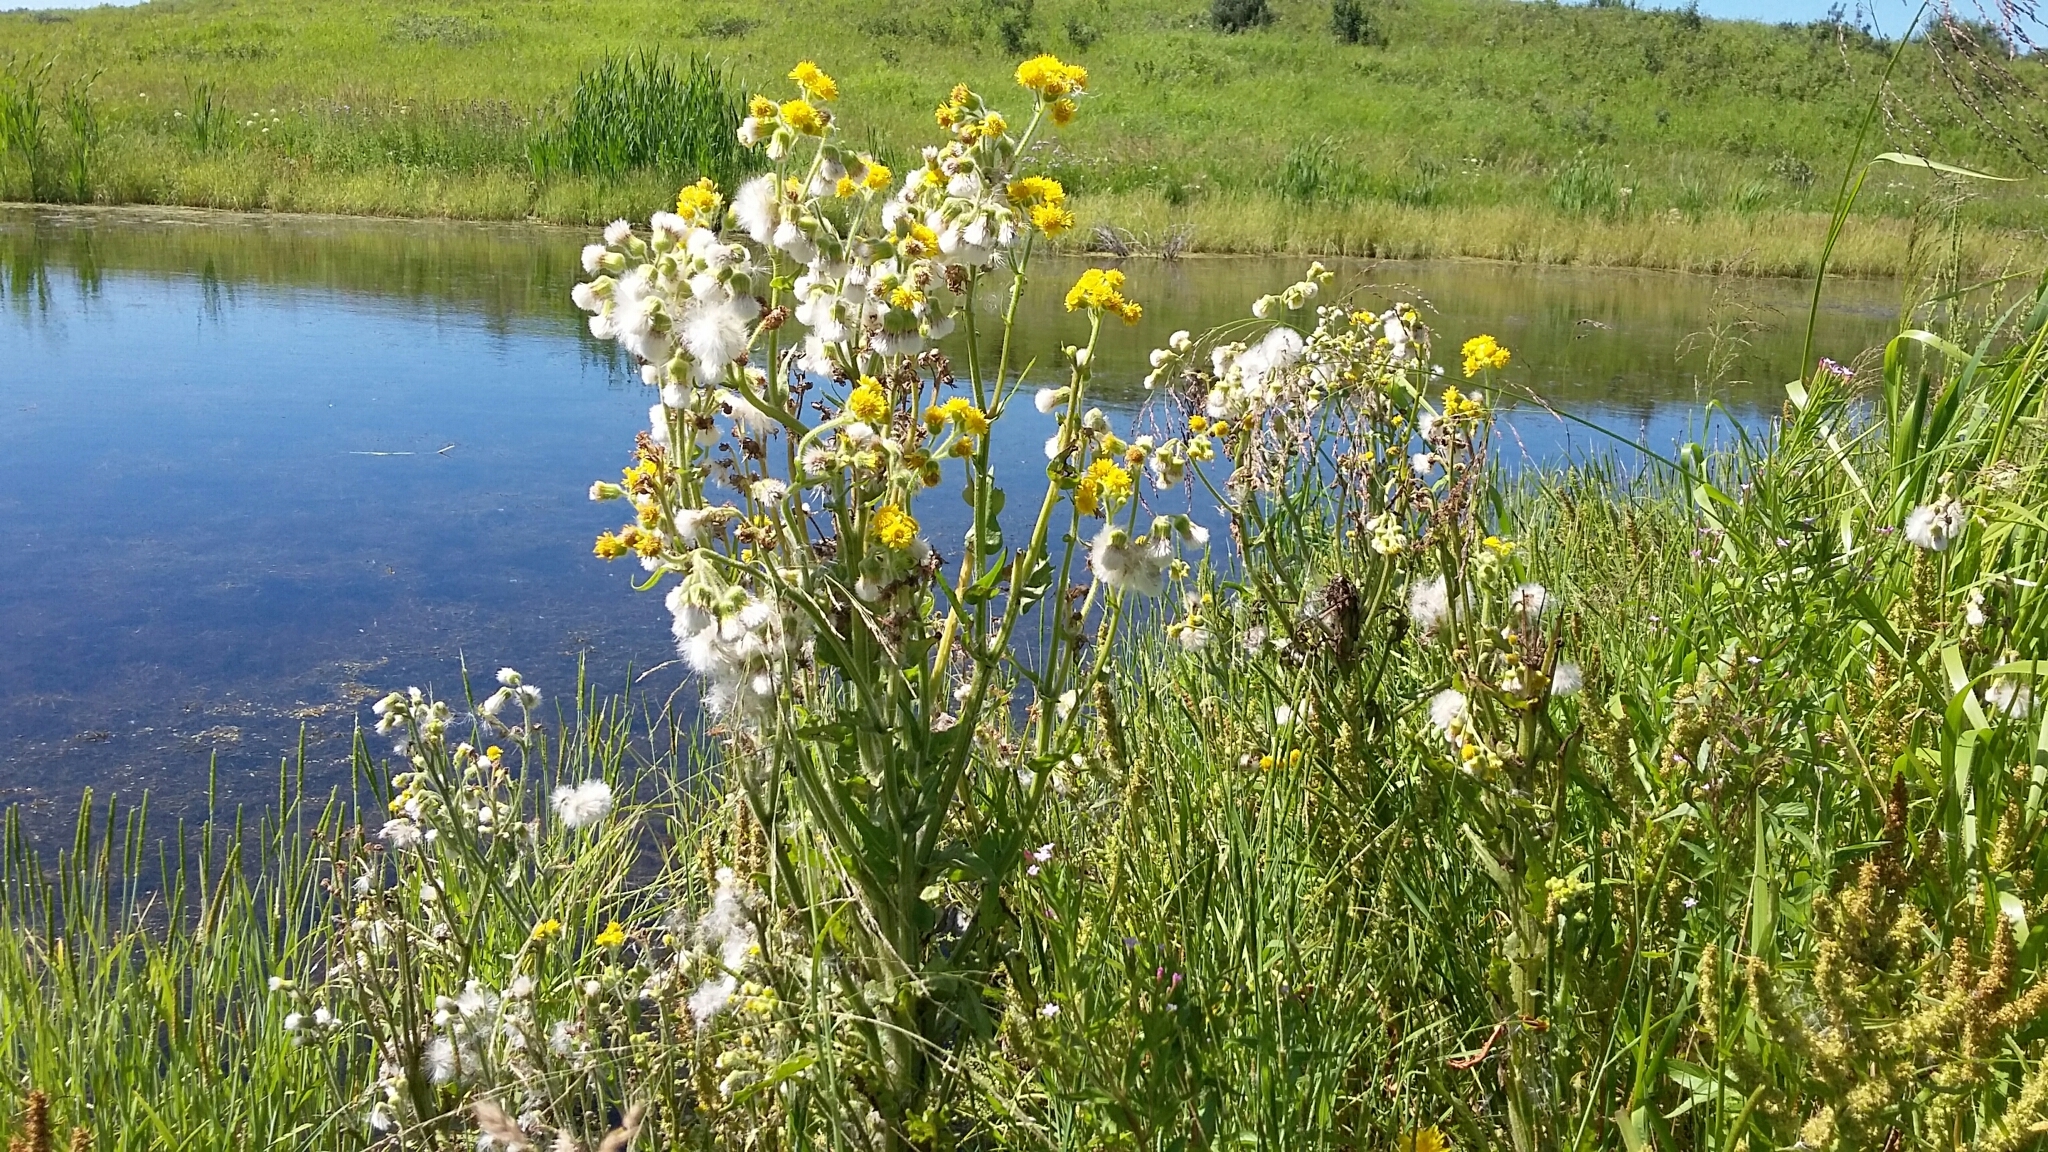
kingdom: Plantae
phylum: Tracheophyta
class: Magnoliopsida
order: Asterales
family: Asteraceae
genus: Tephroseris
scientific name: Tephroseris palustris
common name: Marsh fleawort
